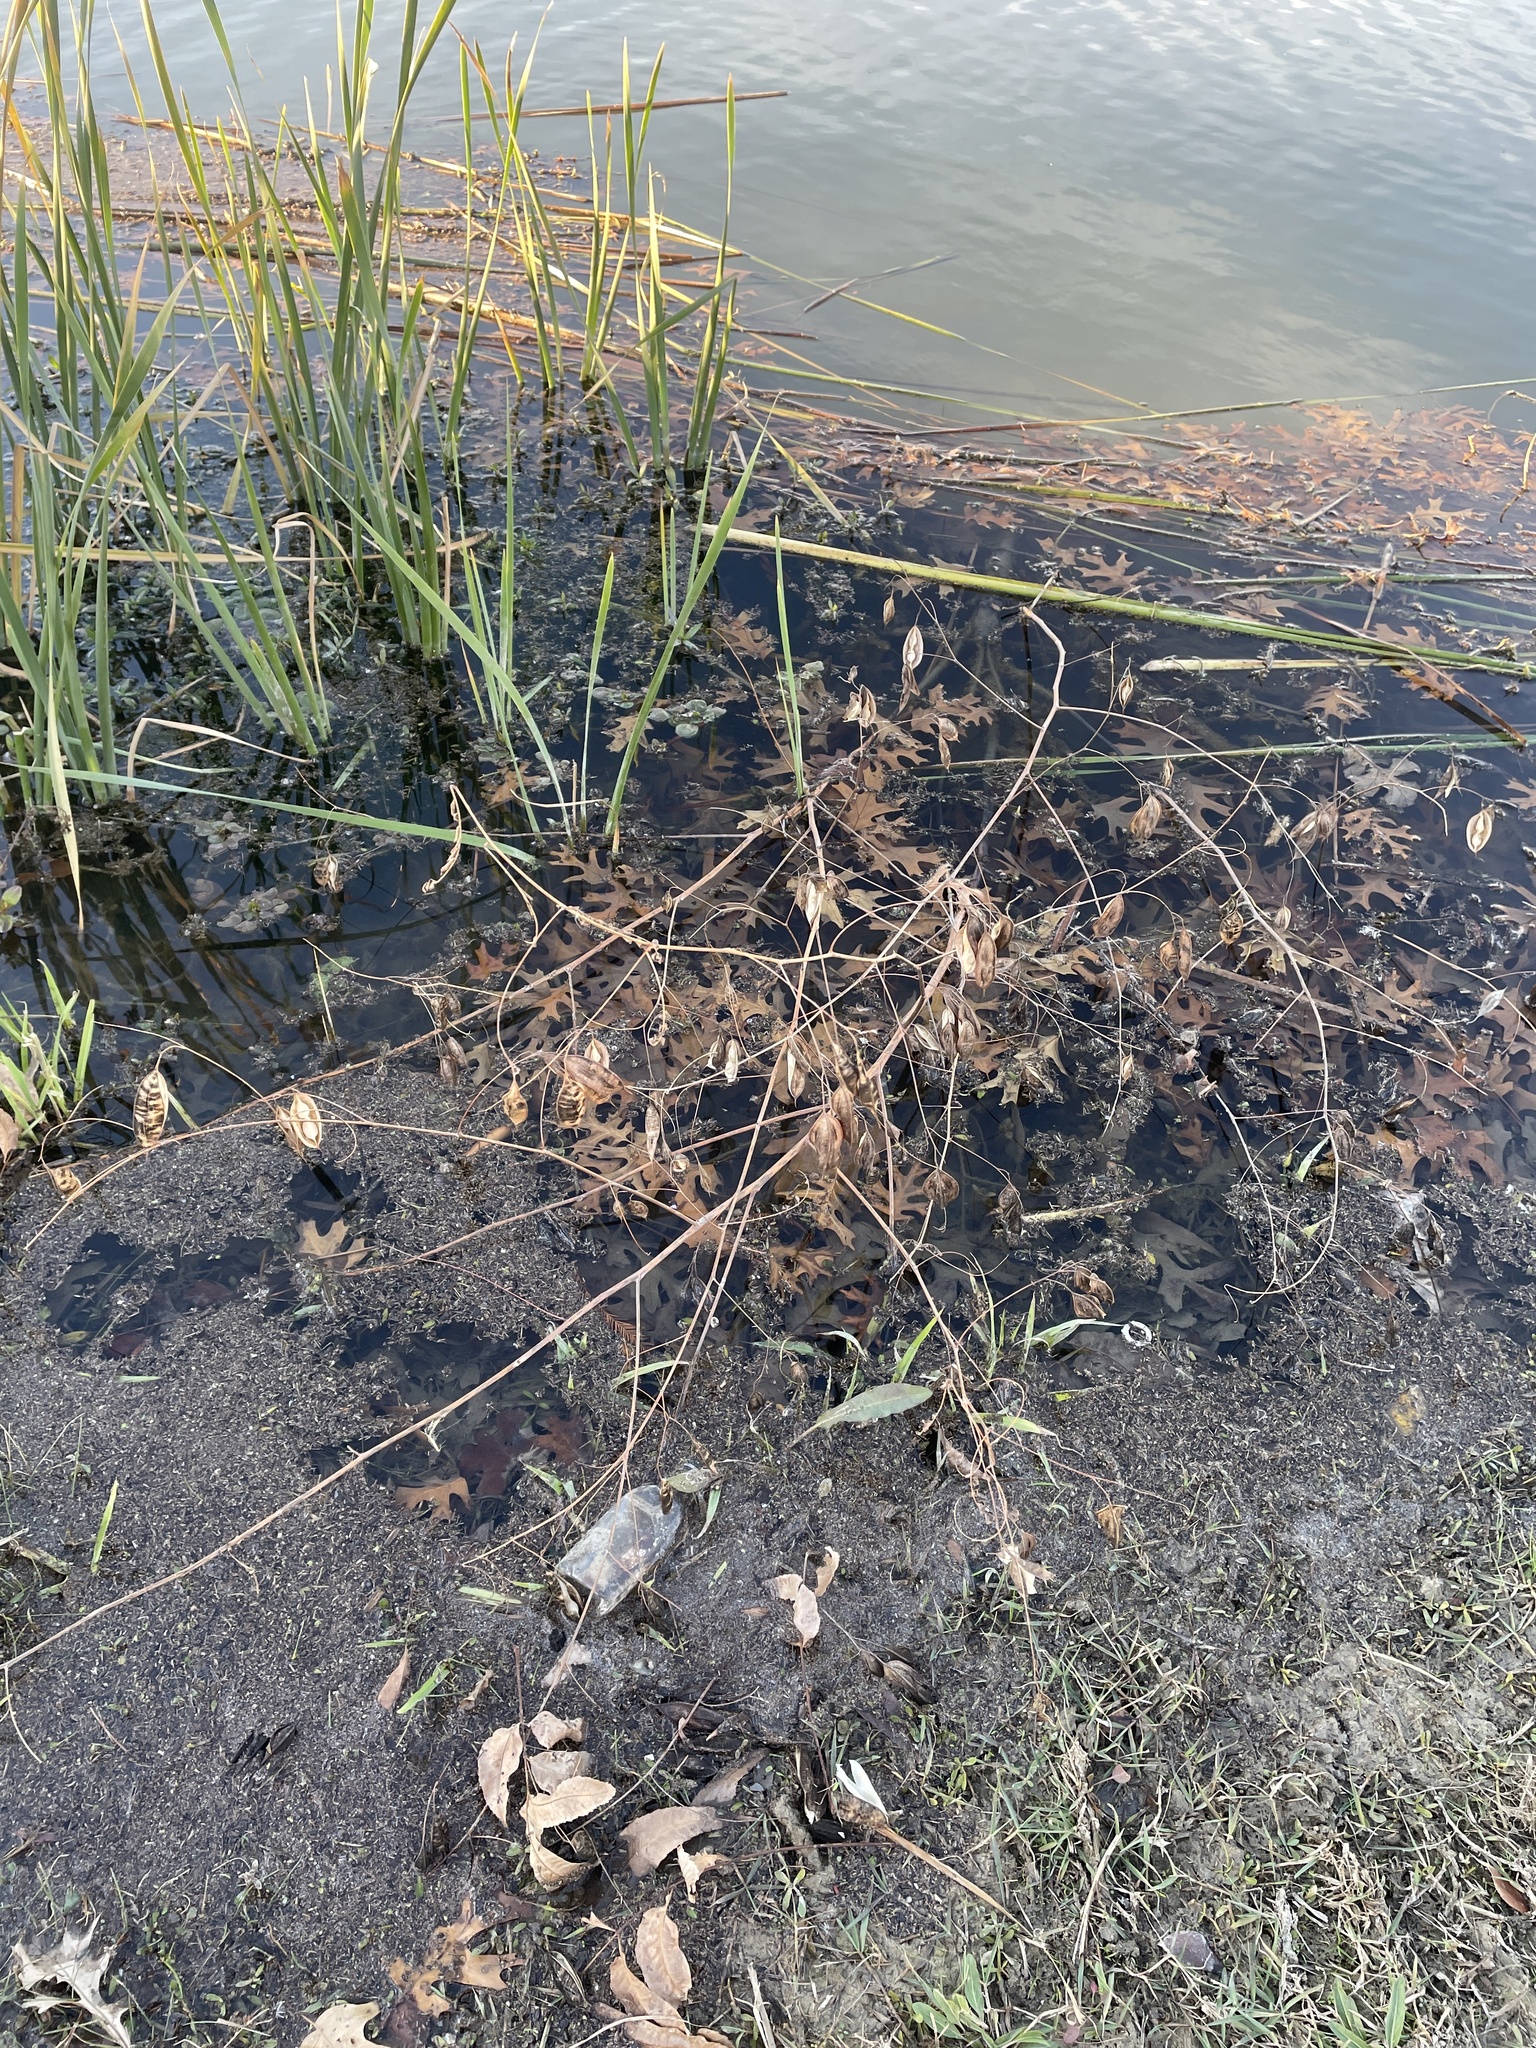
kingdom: Plantae
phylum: Tracheophyta
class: Magnoliopsida
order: Fabales
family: Fabaceae
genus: Sesbania
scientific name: Sesbania vesicaria
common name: Bagpod
